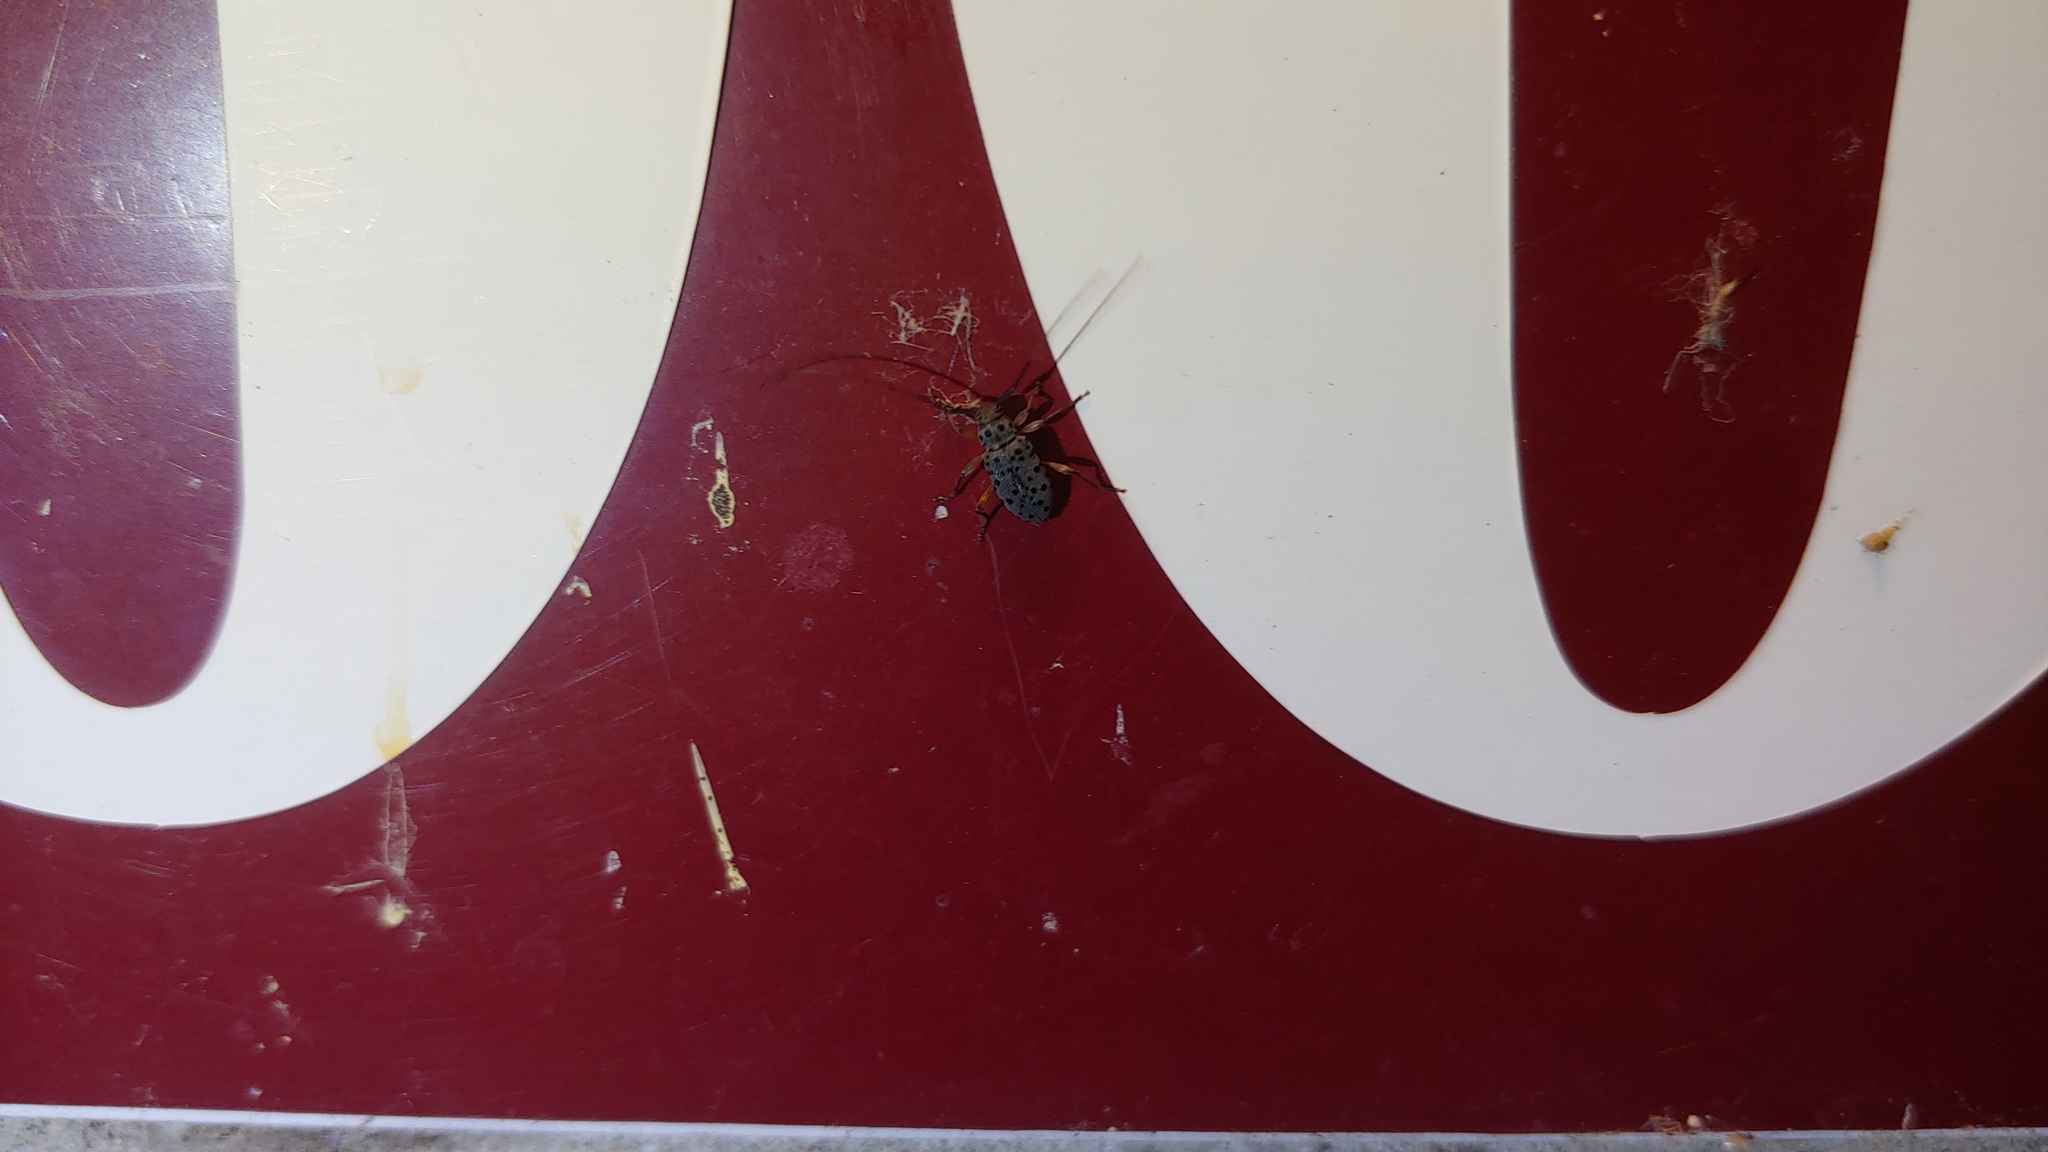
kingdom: Animalia
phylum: Arthropoda
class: Insecta
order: Coleoptera
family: Cerambycidae
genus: Hyperplatys
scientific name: Hyperplatys aspersa
